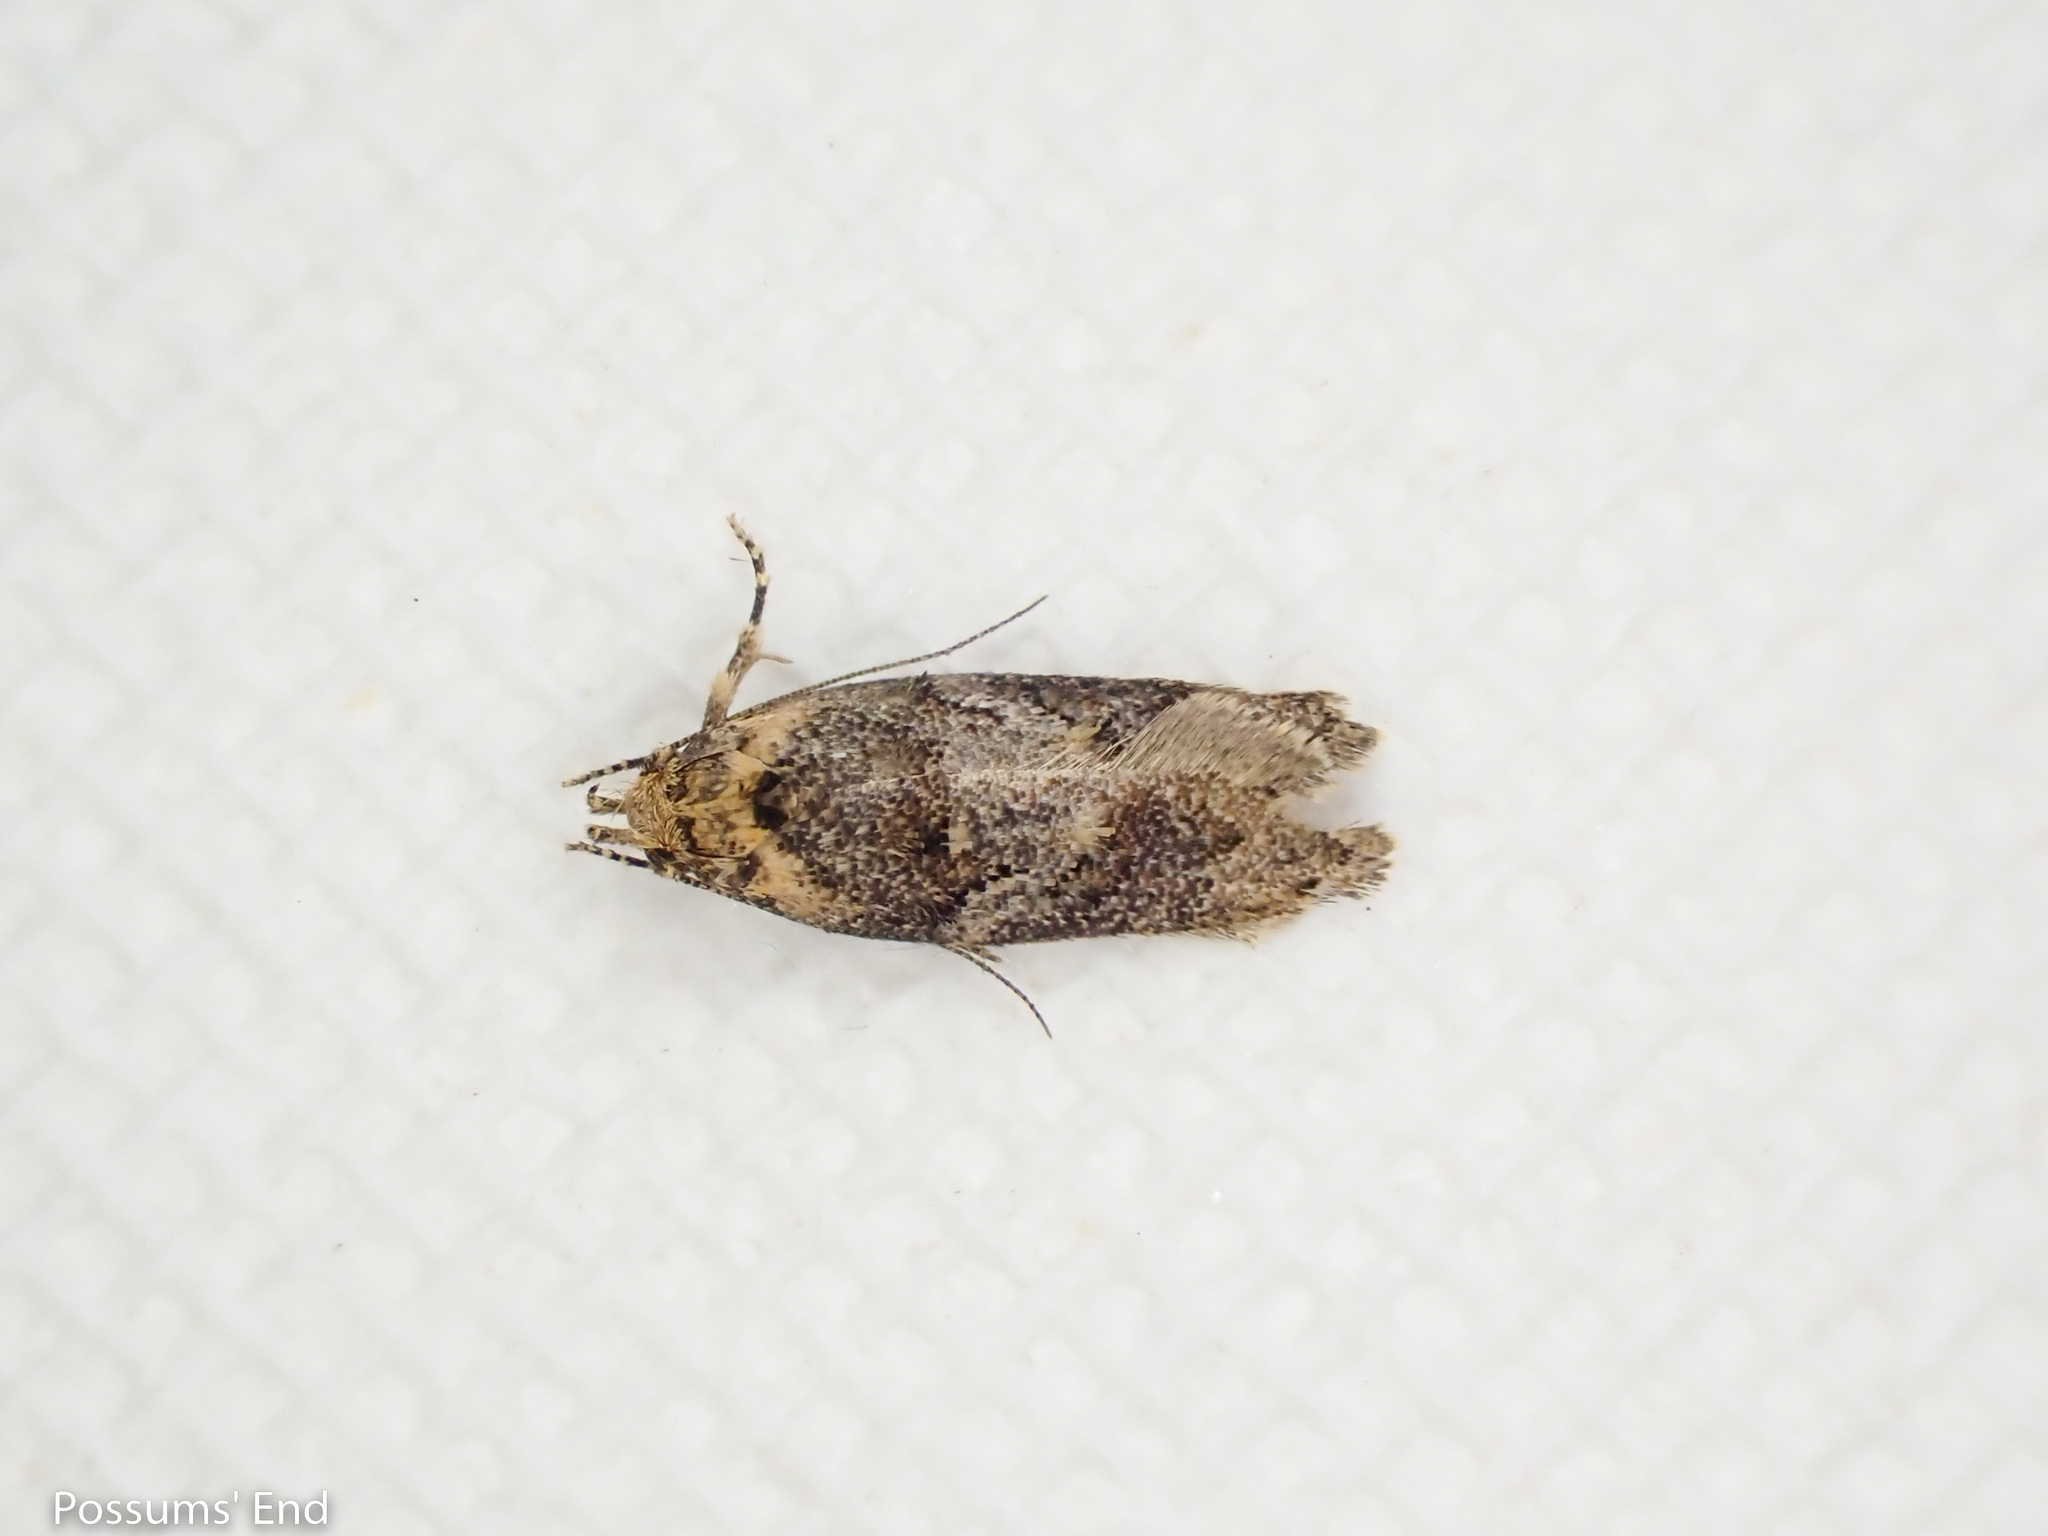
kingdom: Animalia
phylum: Arthropoda
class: Insecta
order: Lepidoptera
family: Oecophoridae
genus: Trachypepla
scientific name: Trachypepla anastrella
